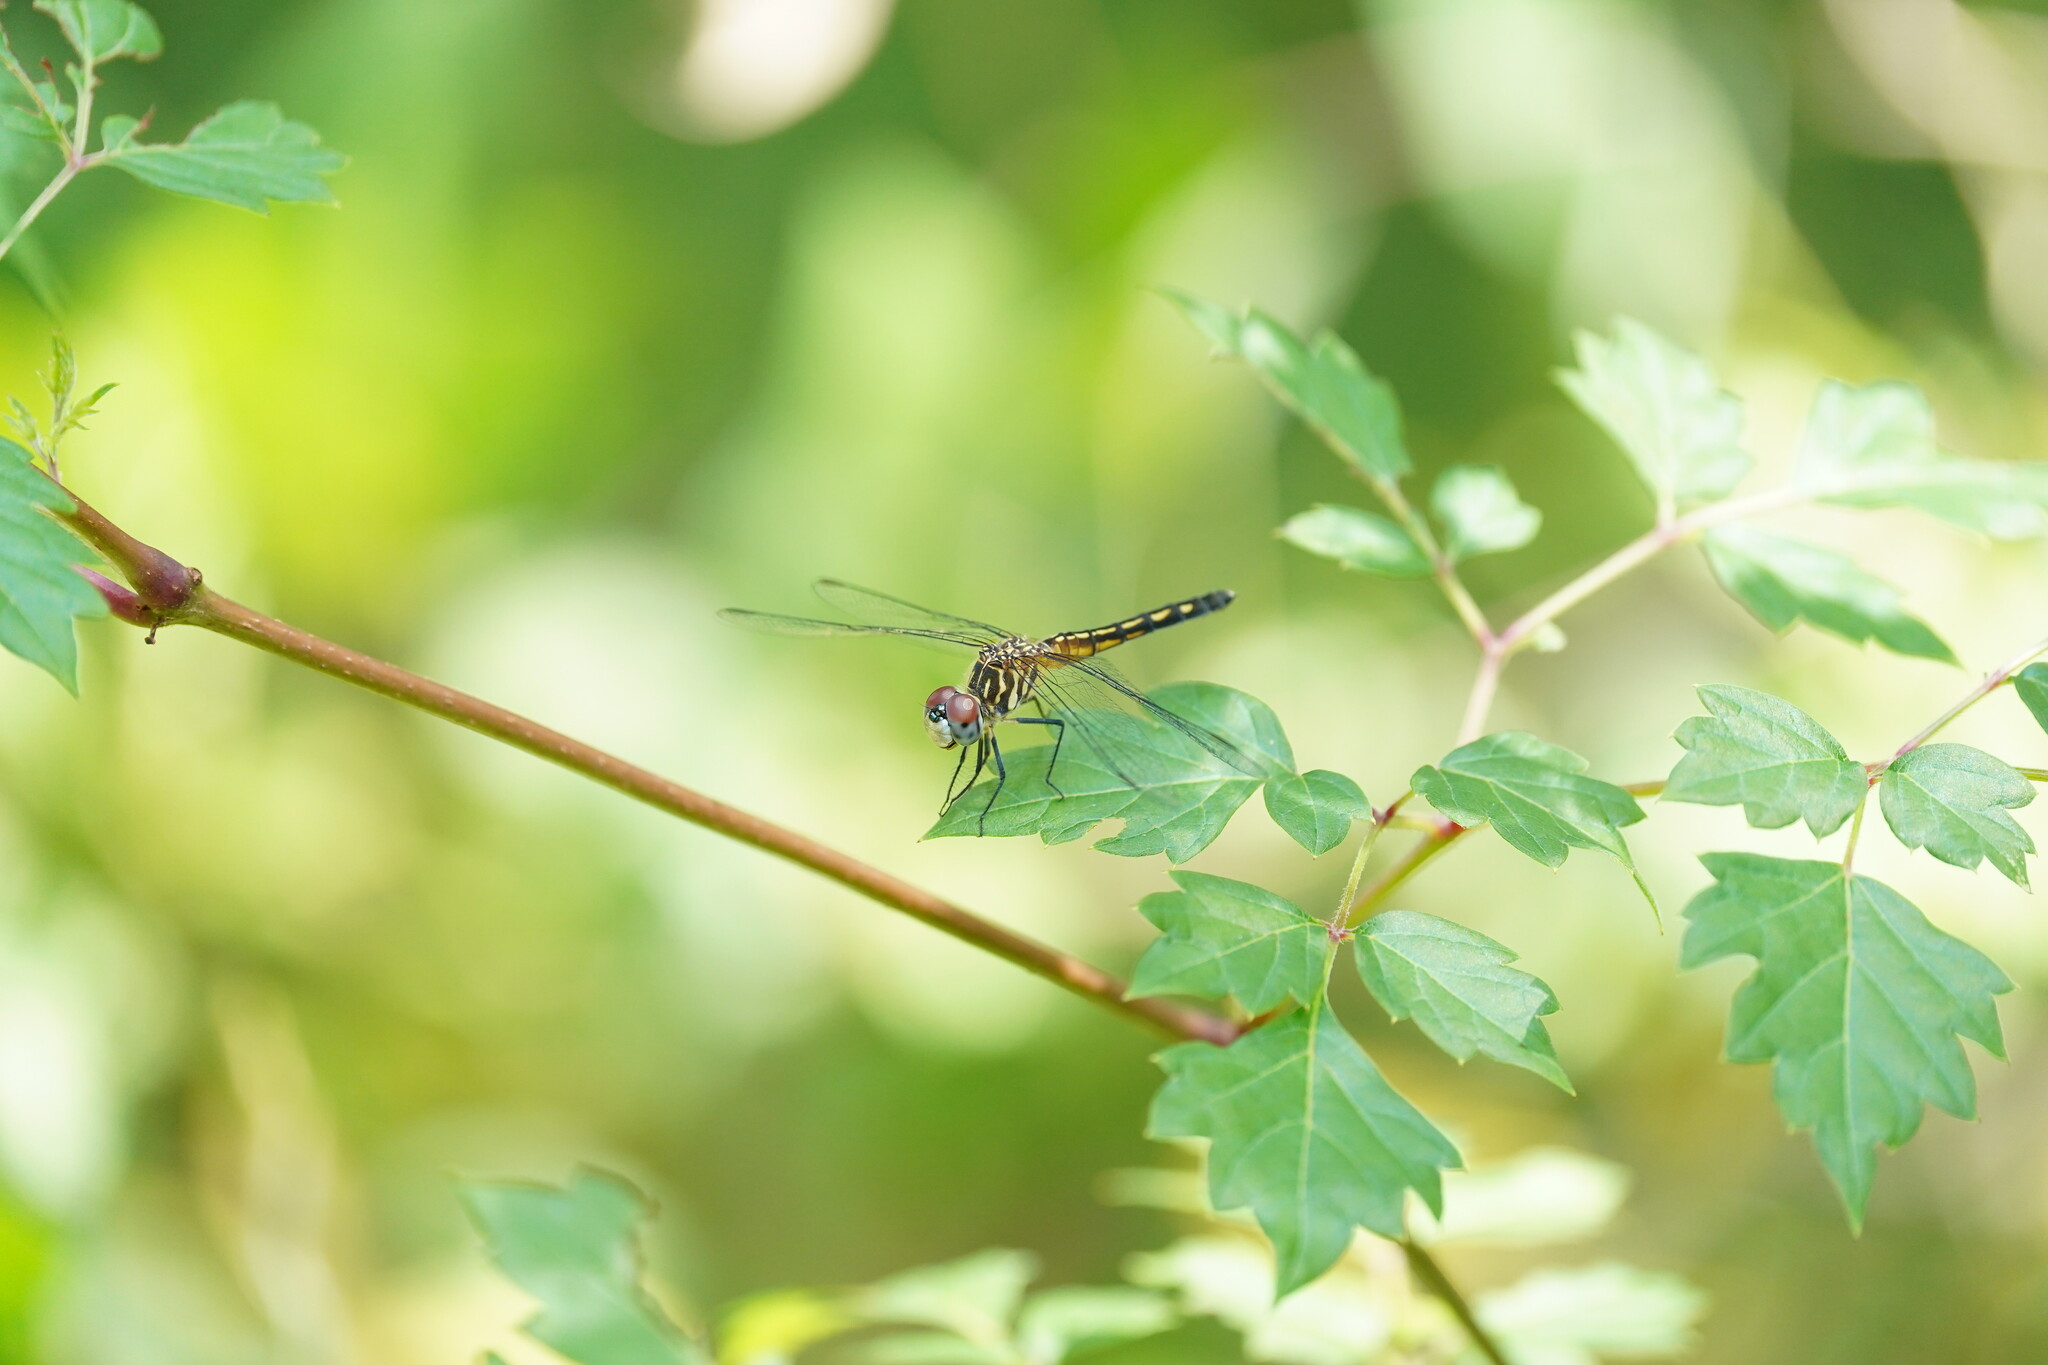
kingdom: Animalia
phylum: Arthropoda
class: Insecta
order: Odonata
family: Libellulidae
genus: Pachydiplax
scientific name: Pachydiplax longipennis
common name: Blue dasher
